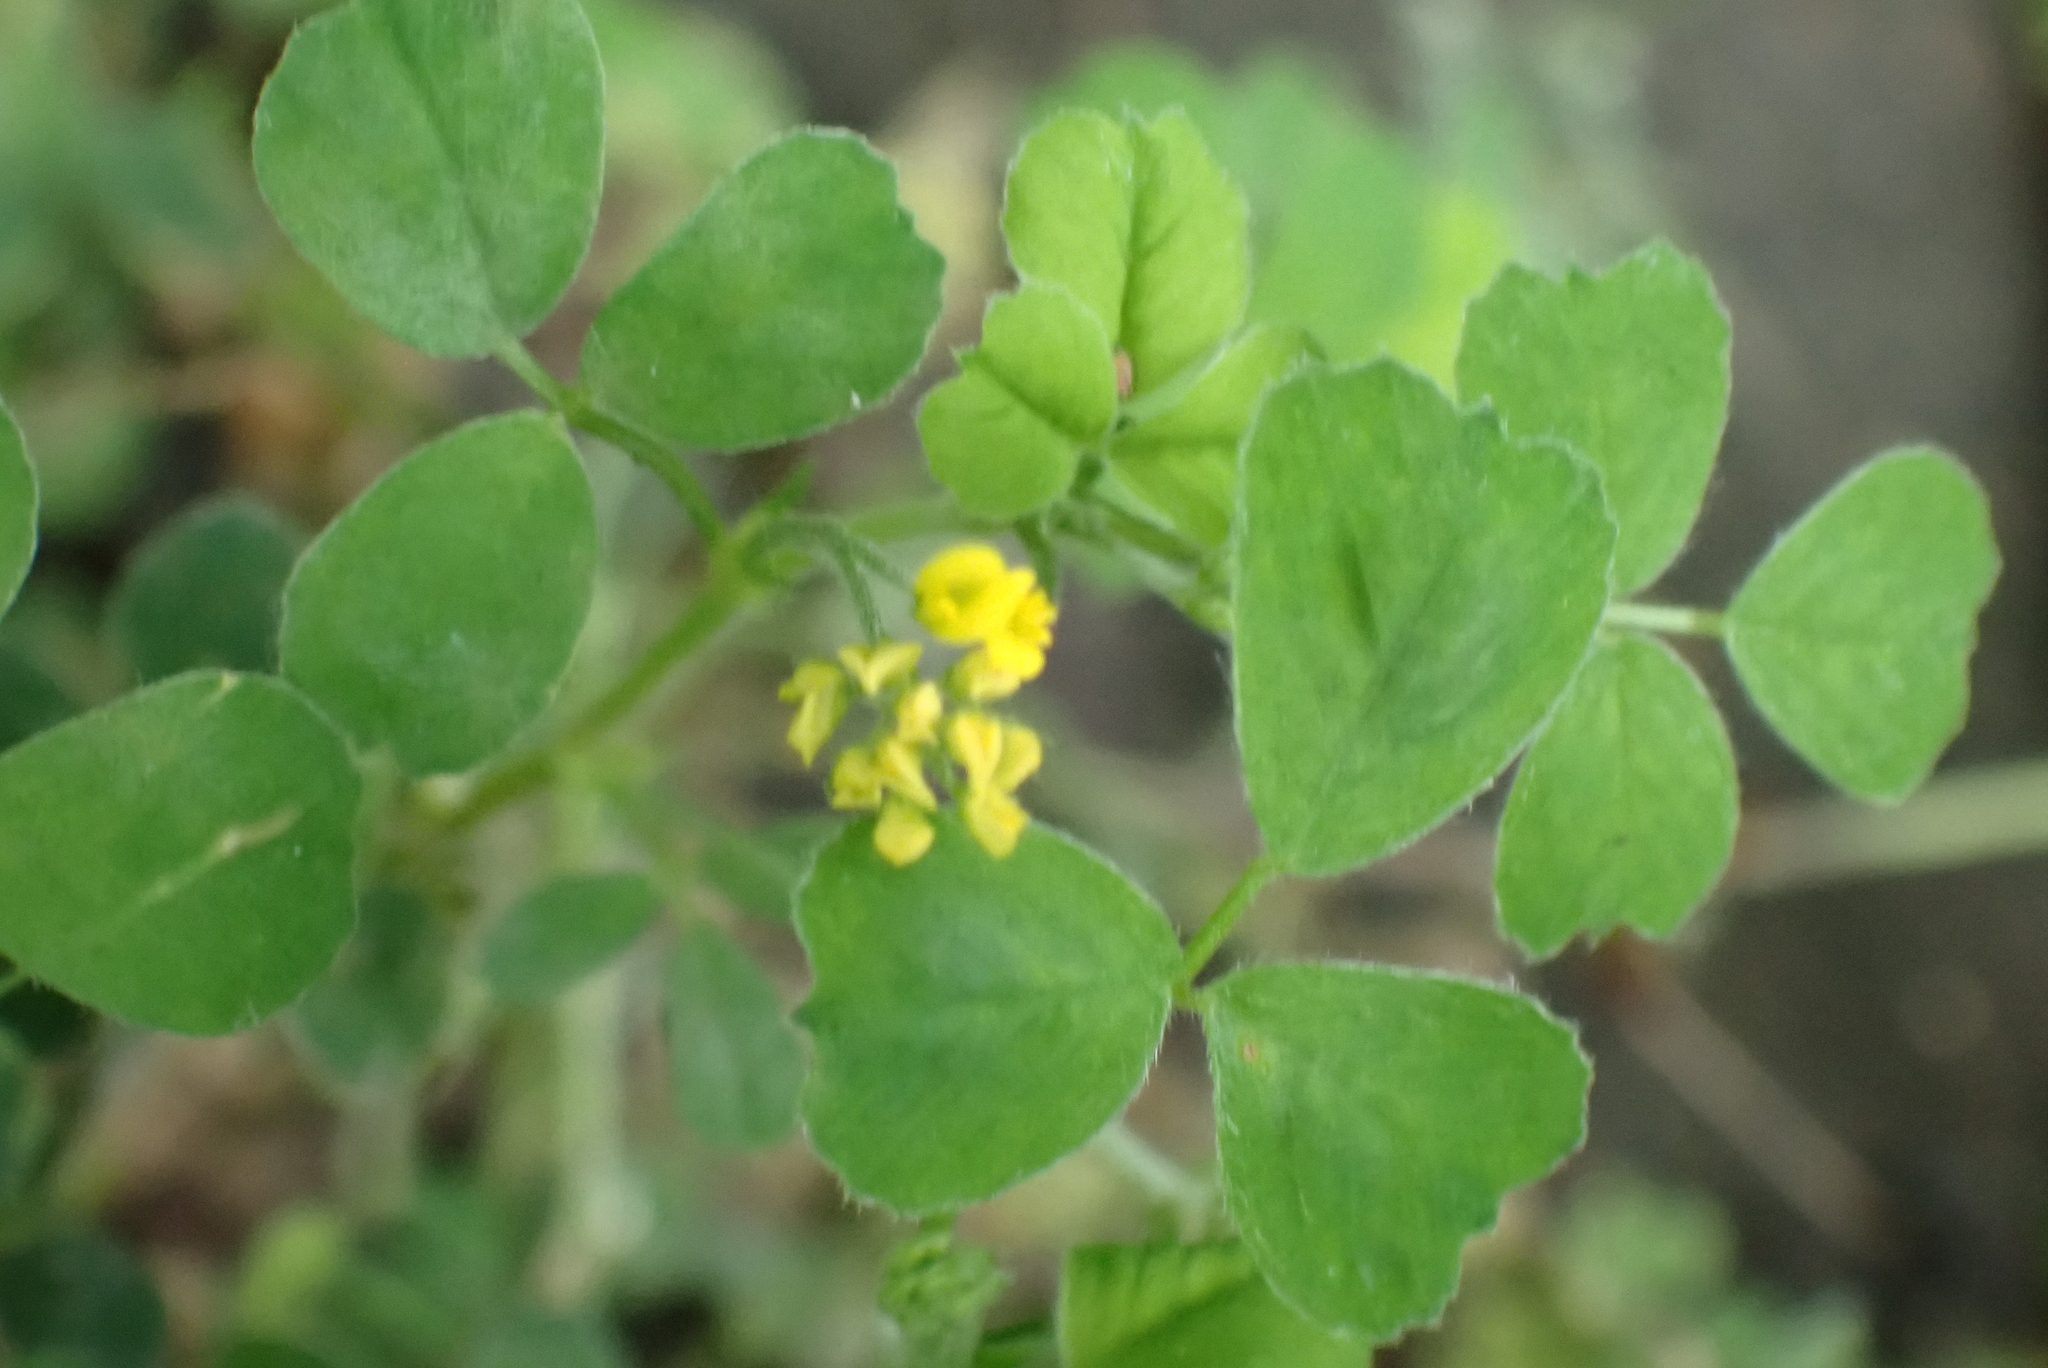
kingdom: Plantae
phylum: Tracheophyta
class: Magnoliopsida
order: Fabales
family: Fabaceae
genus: Medicago
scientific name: Medicago lupulina
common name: Black medick
